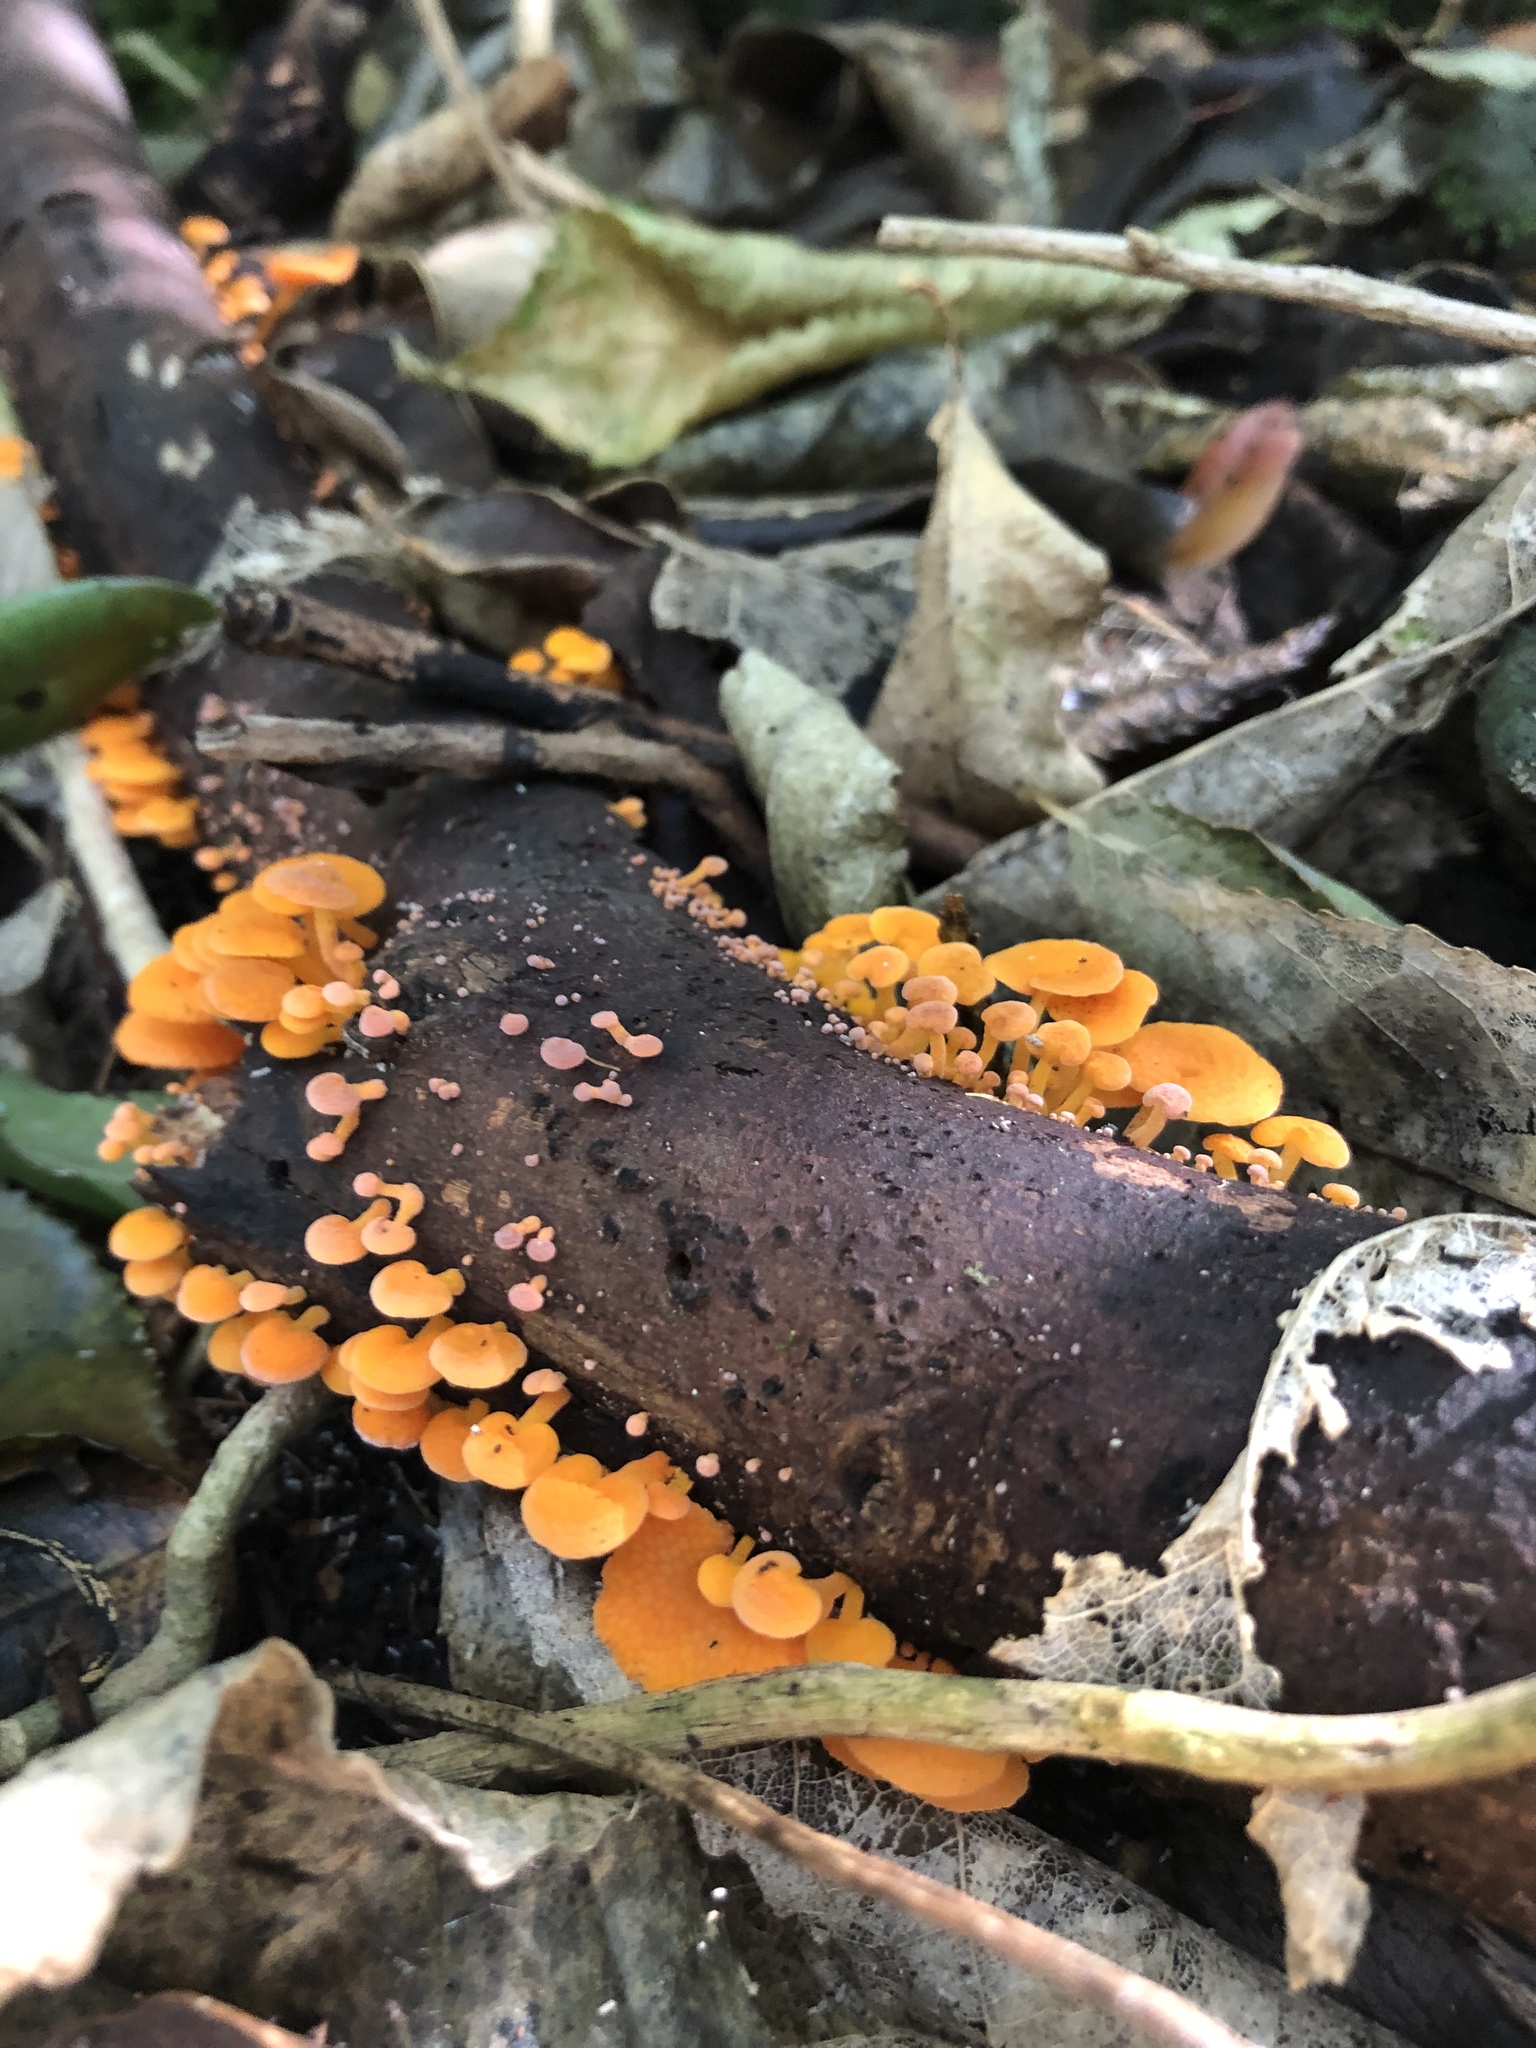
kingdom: Fungi
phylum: Basidiomycota
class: Agaricomycetes
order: Agaricales
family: Mycenaceae
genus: Favolaschia
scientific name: Favolaschia claudopus
